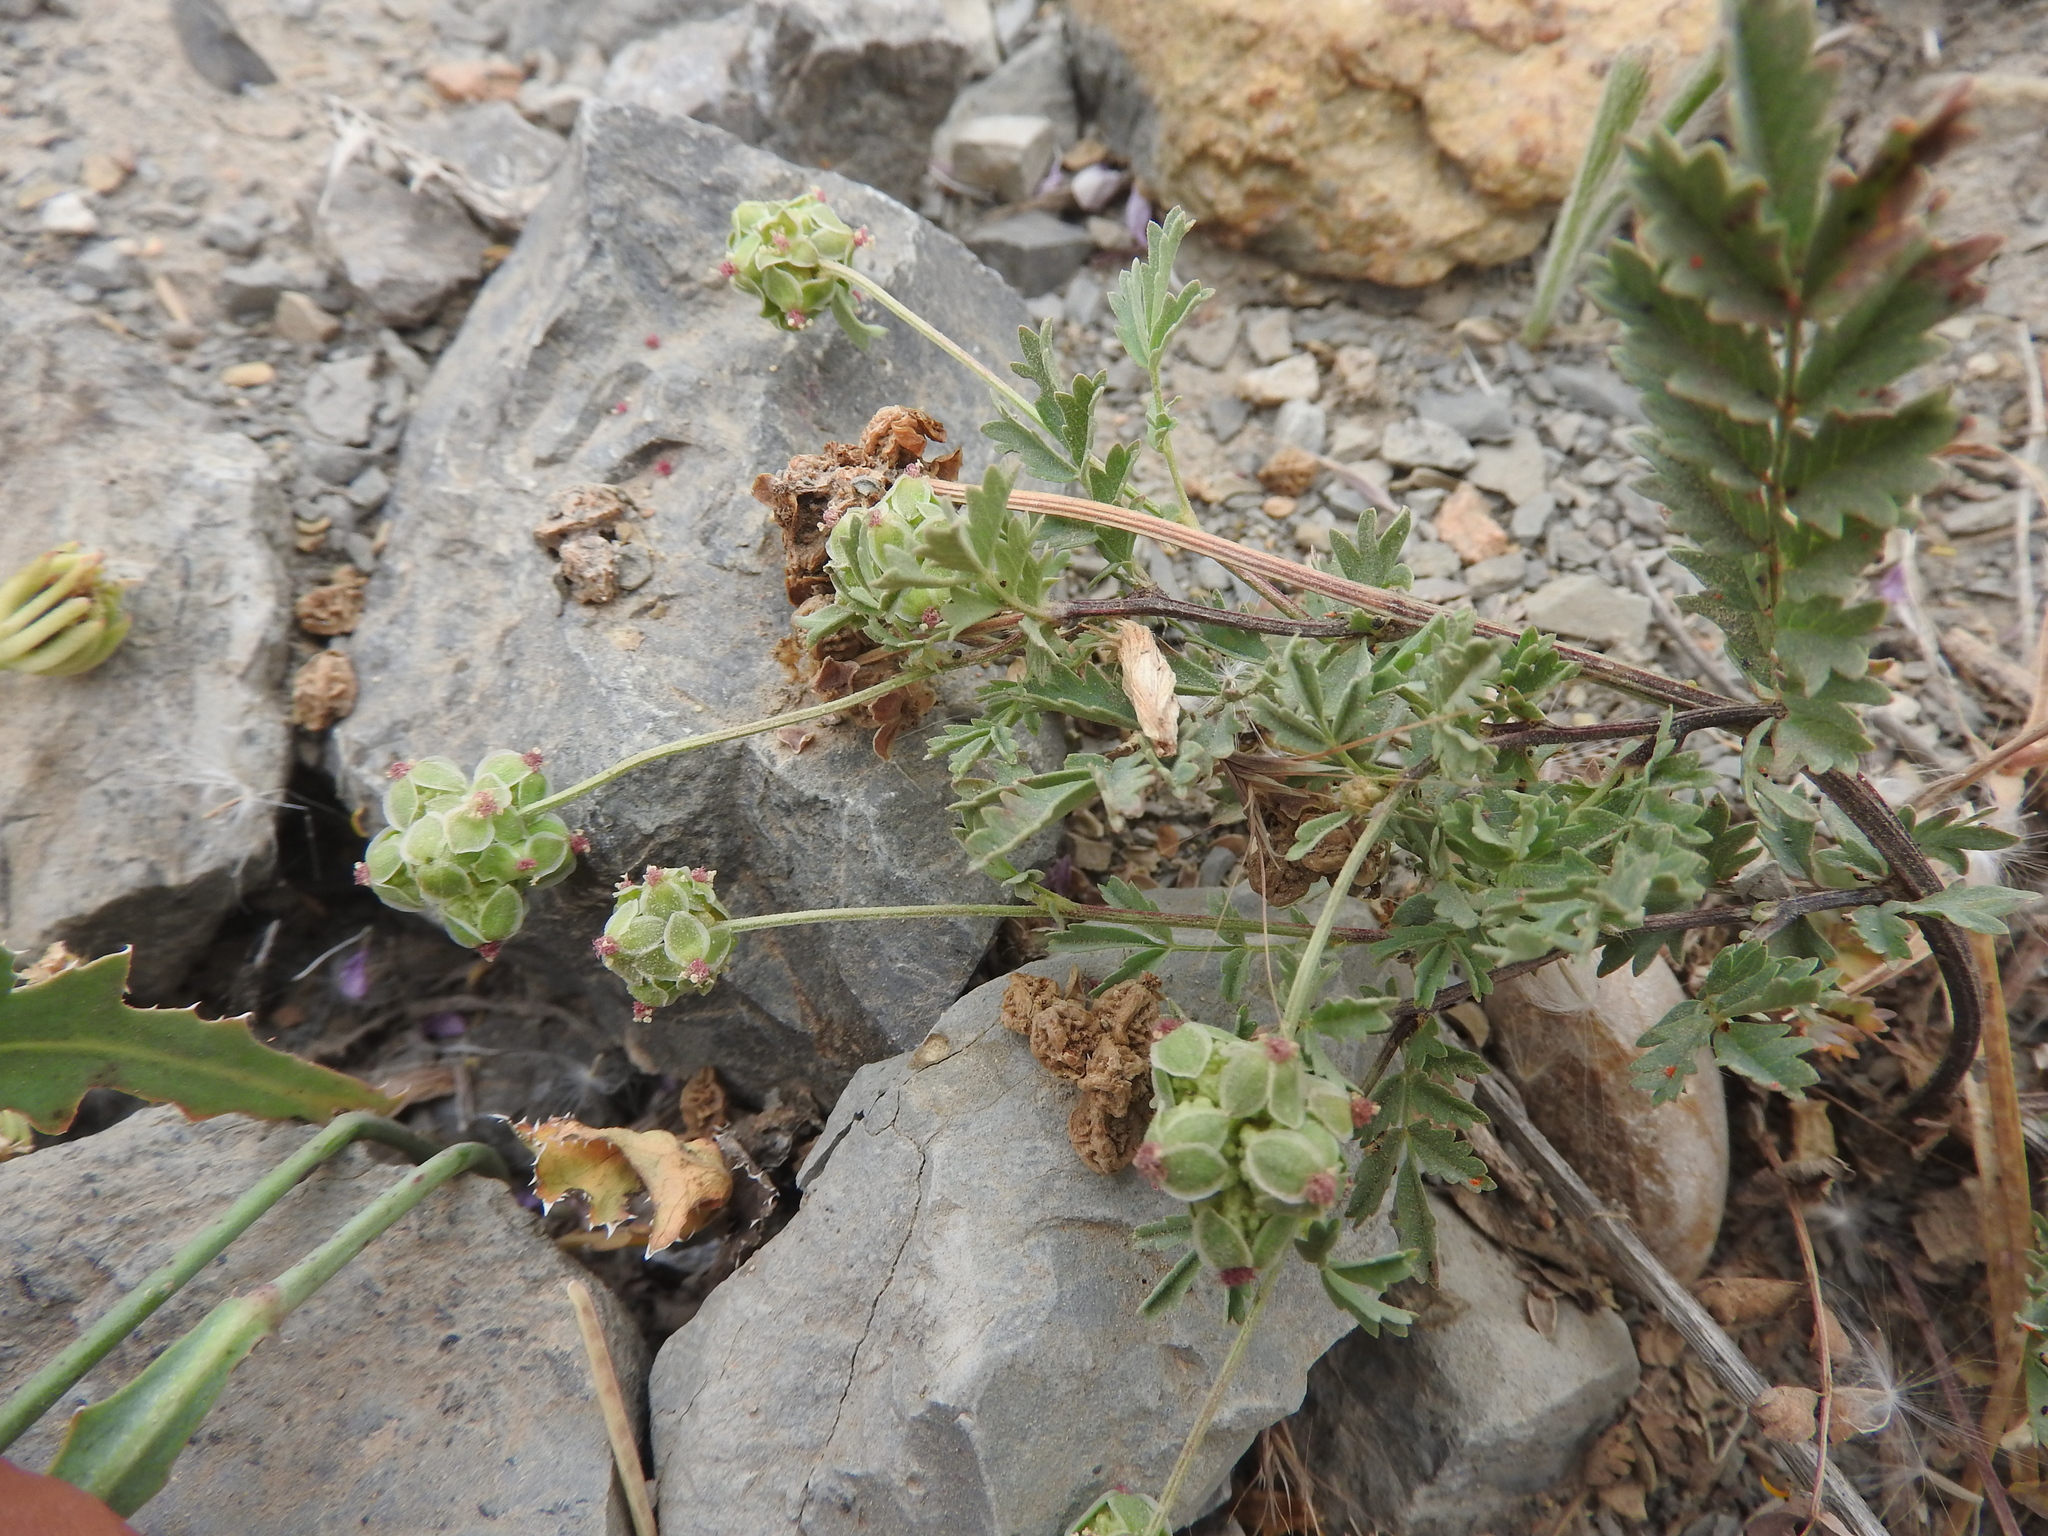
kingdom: Plantae
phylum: Tracheophyta
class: Magnoliopsida
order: Rosales
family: Rosaceae
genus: Poterium
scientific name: Poterium
